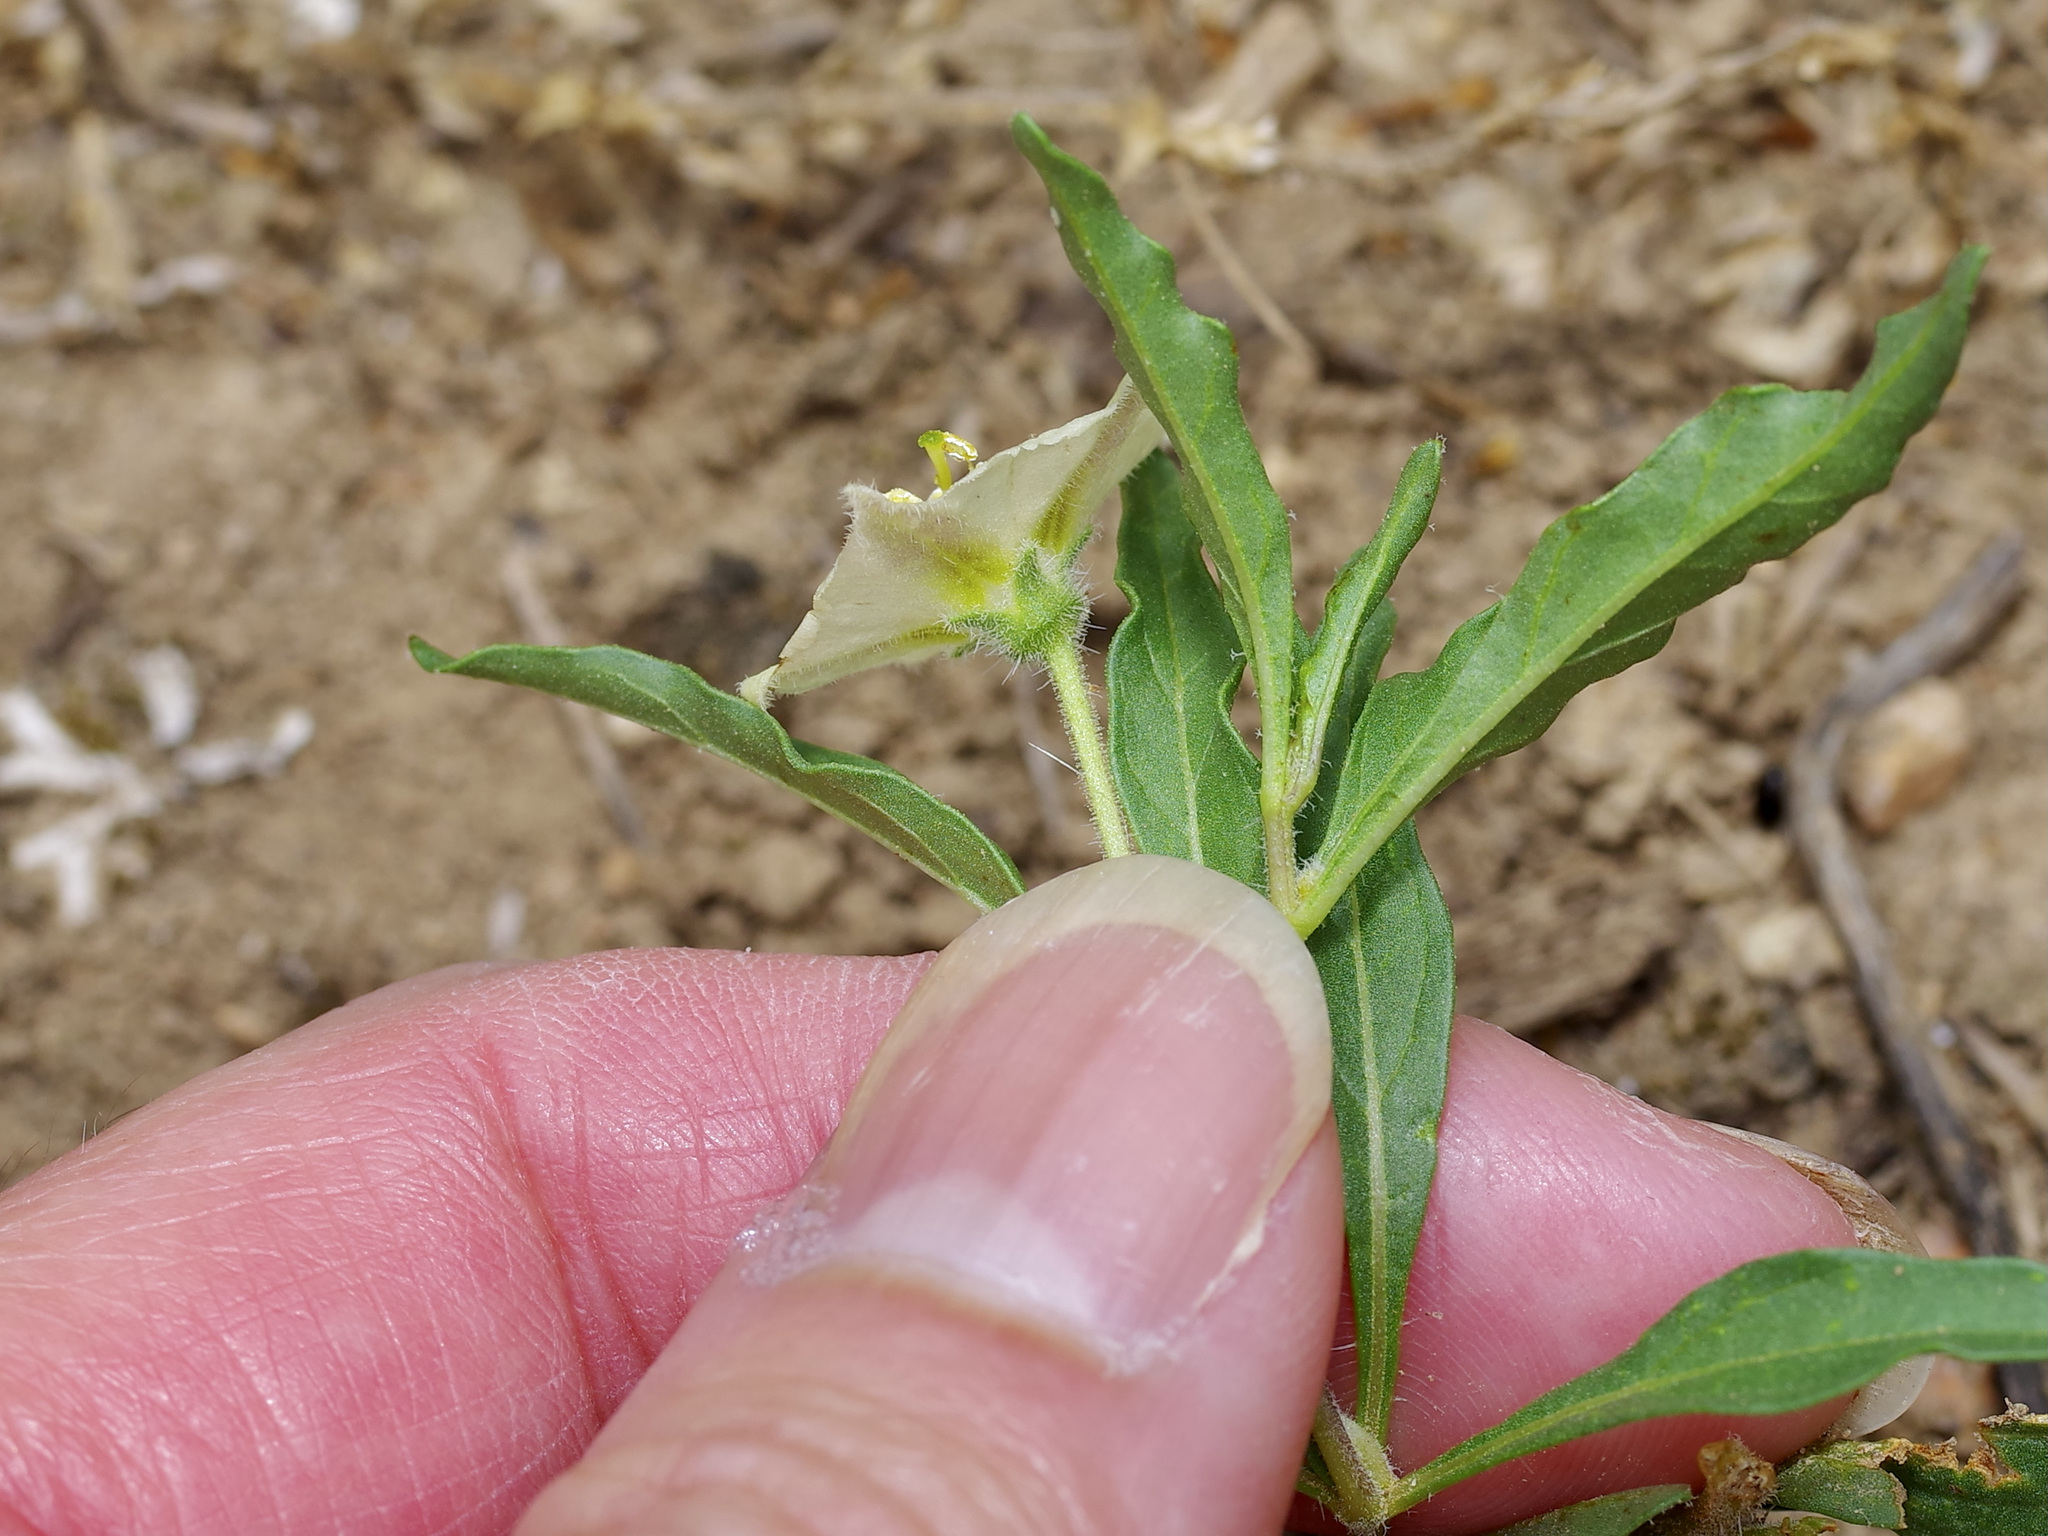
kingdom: Plantae
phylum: Tracheophyta
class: Magnoliopsida
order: Solanales
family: Solanaceae
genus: Chamaesaracha
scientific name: Chamaesaracha edwardsiana
